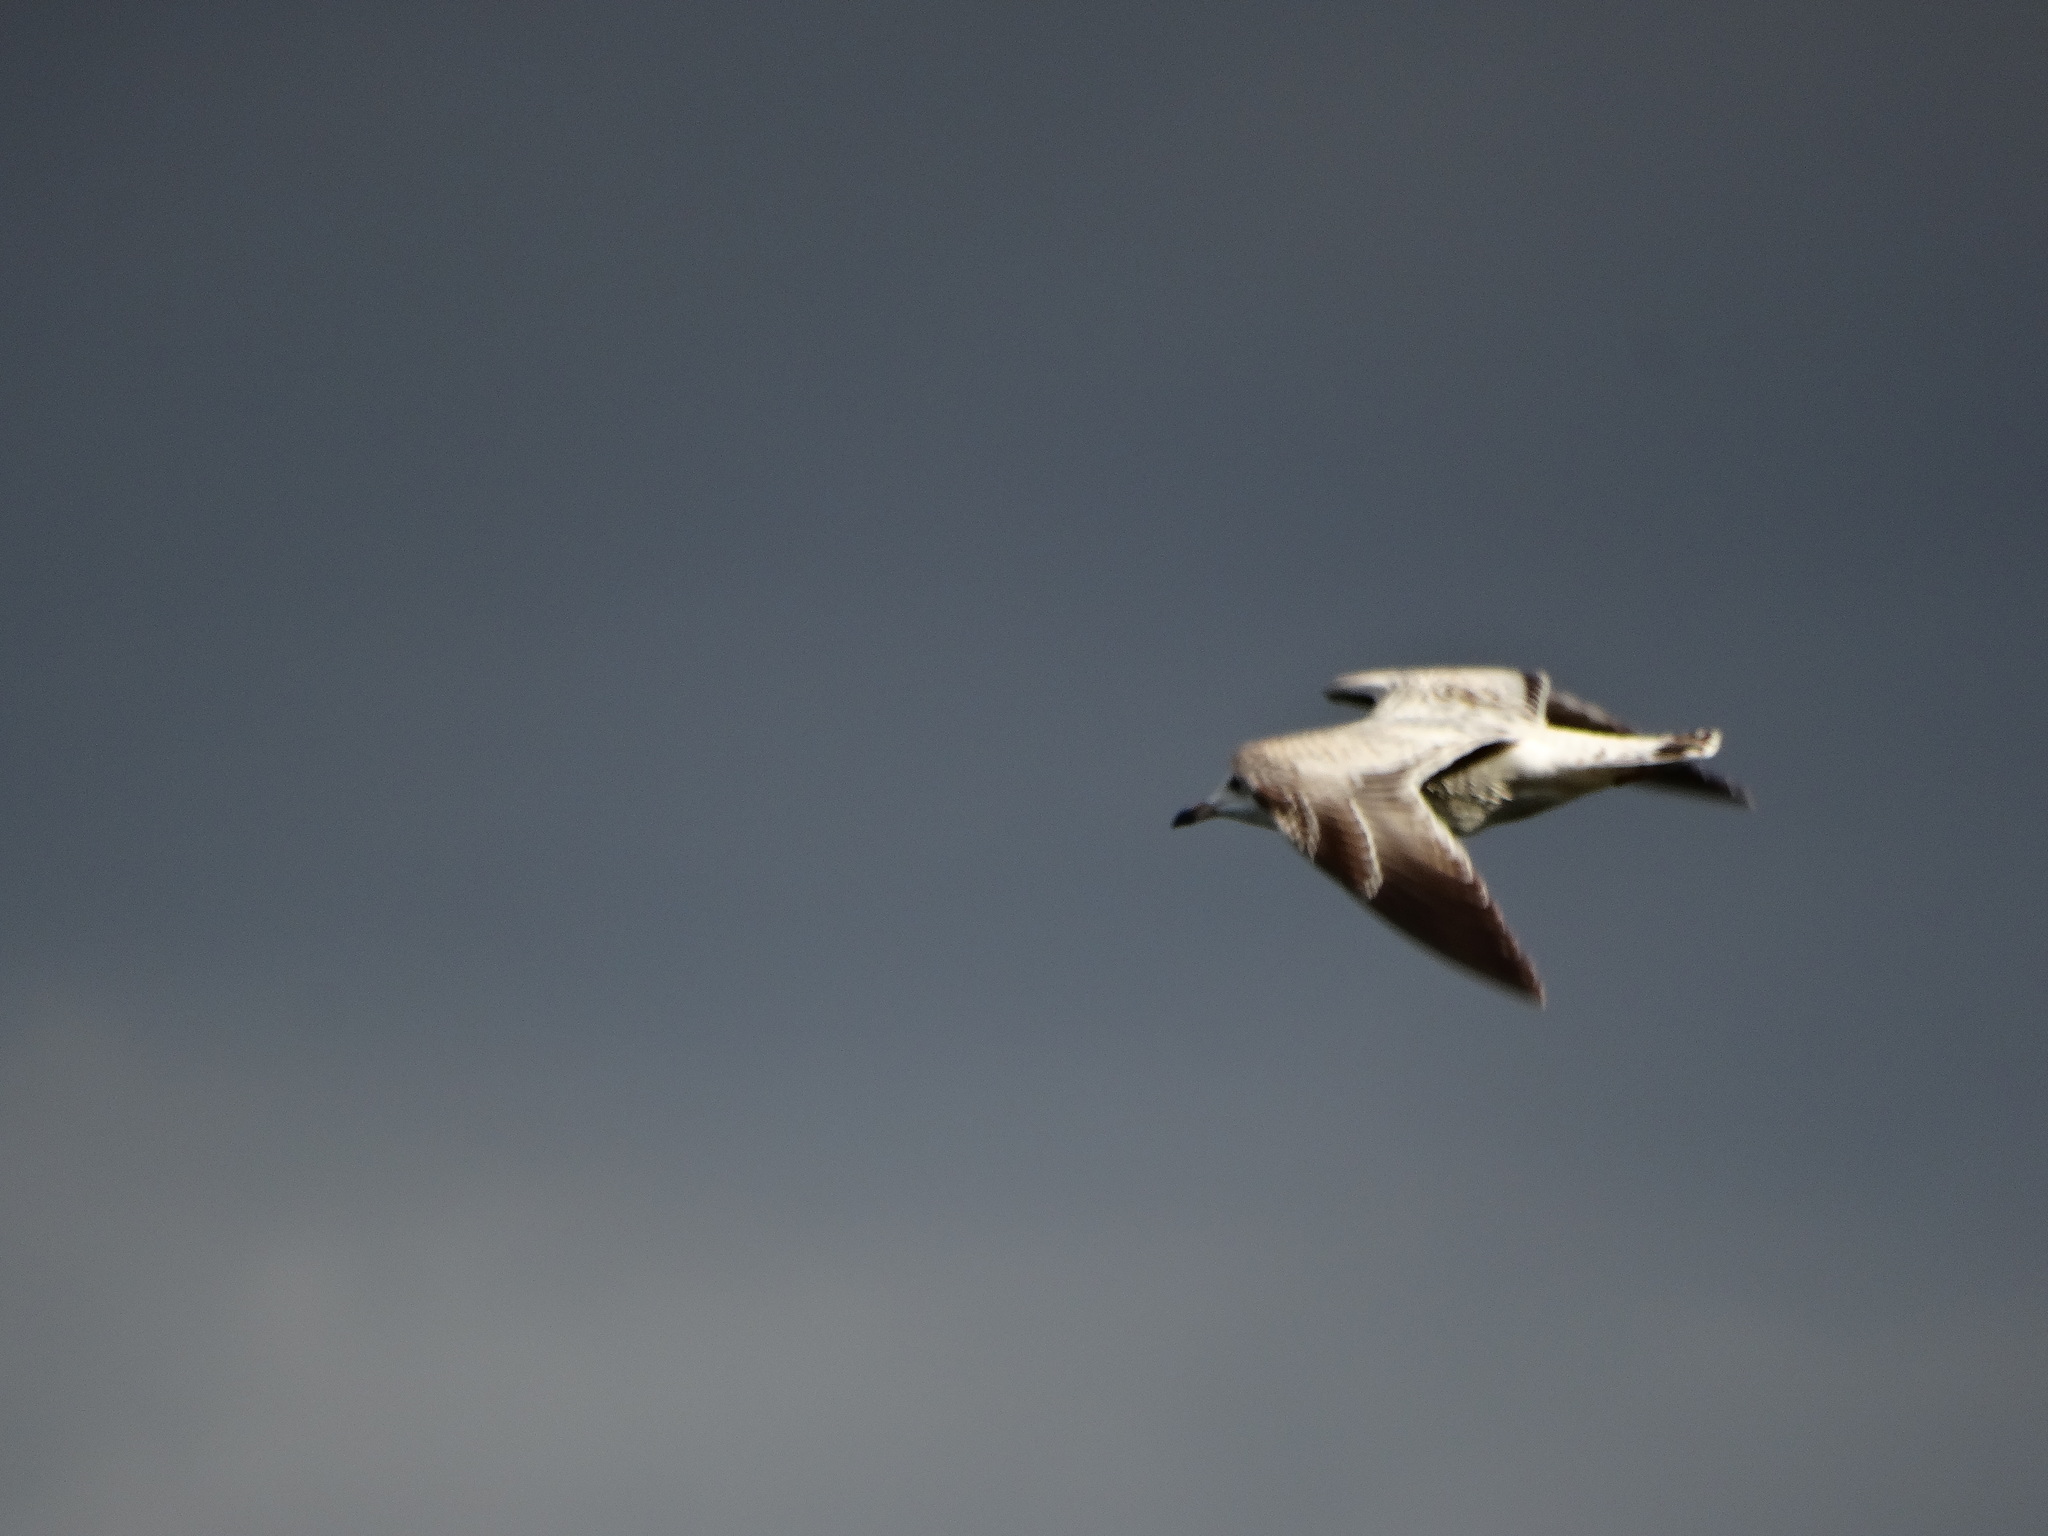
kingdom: Animalia
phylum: Chordata
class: Aves
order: Charadriiformes
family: Laridae
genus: Larus
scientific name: Larus delawarensis
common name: Ring-billed gull
